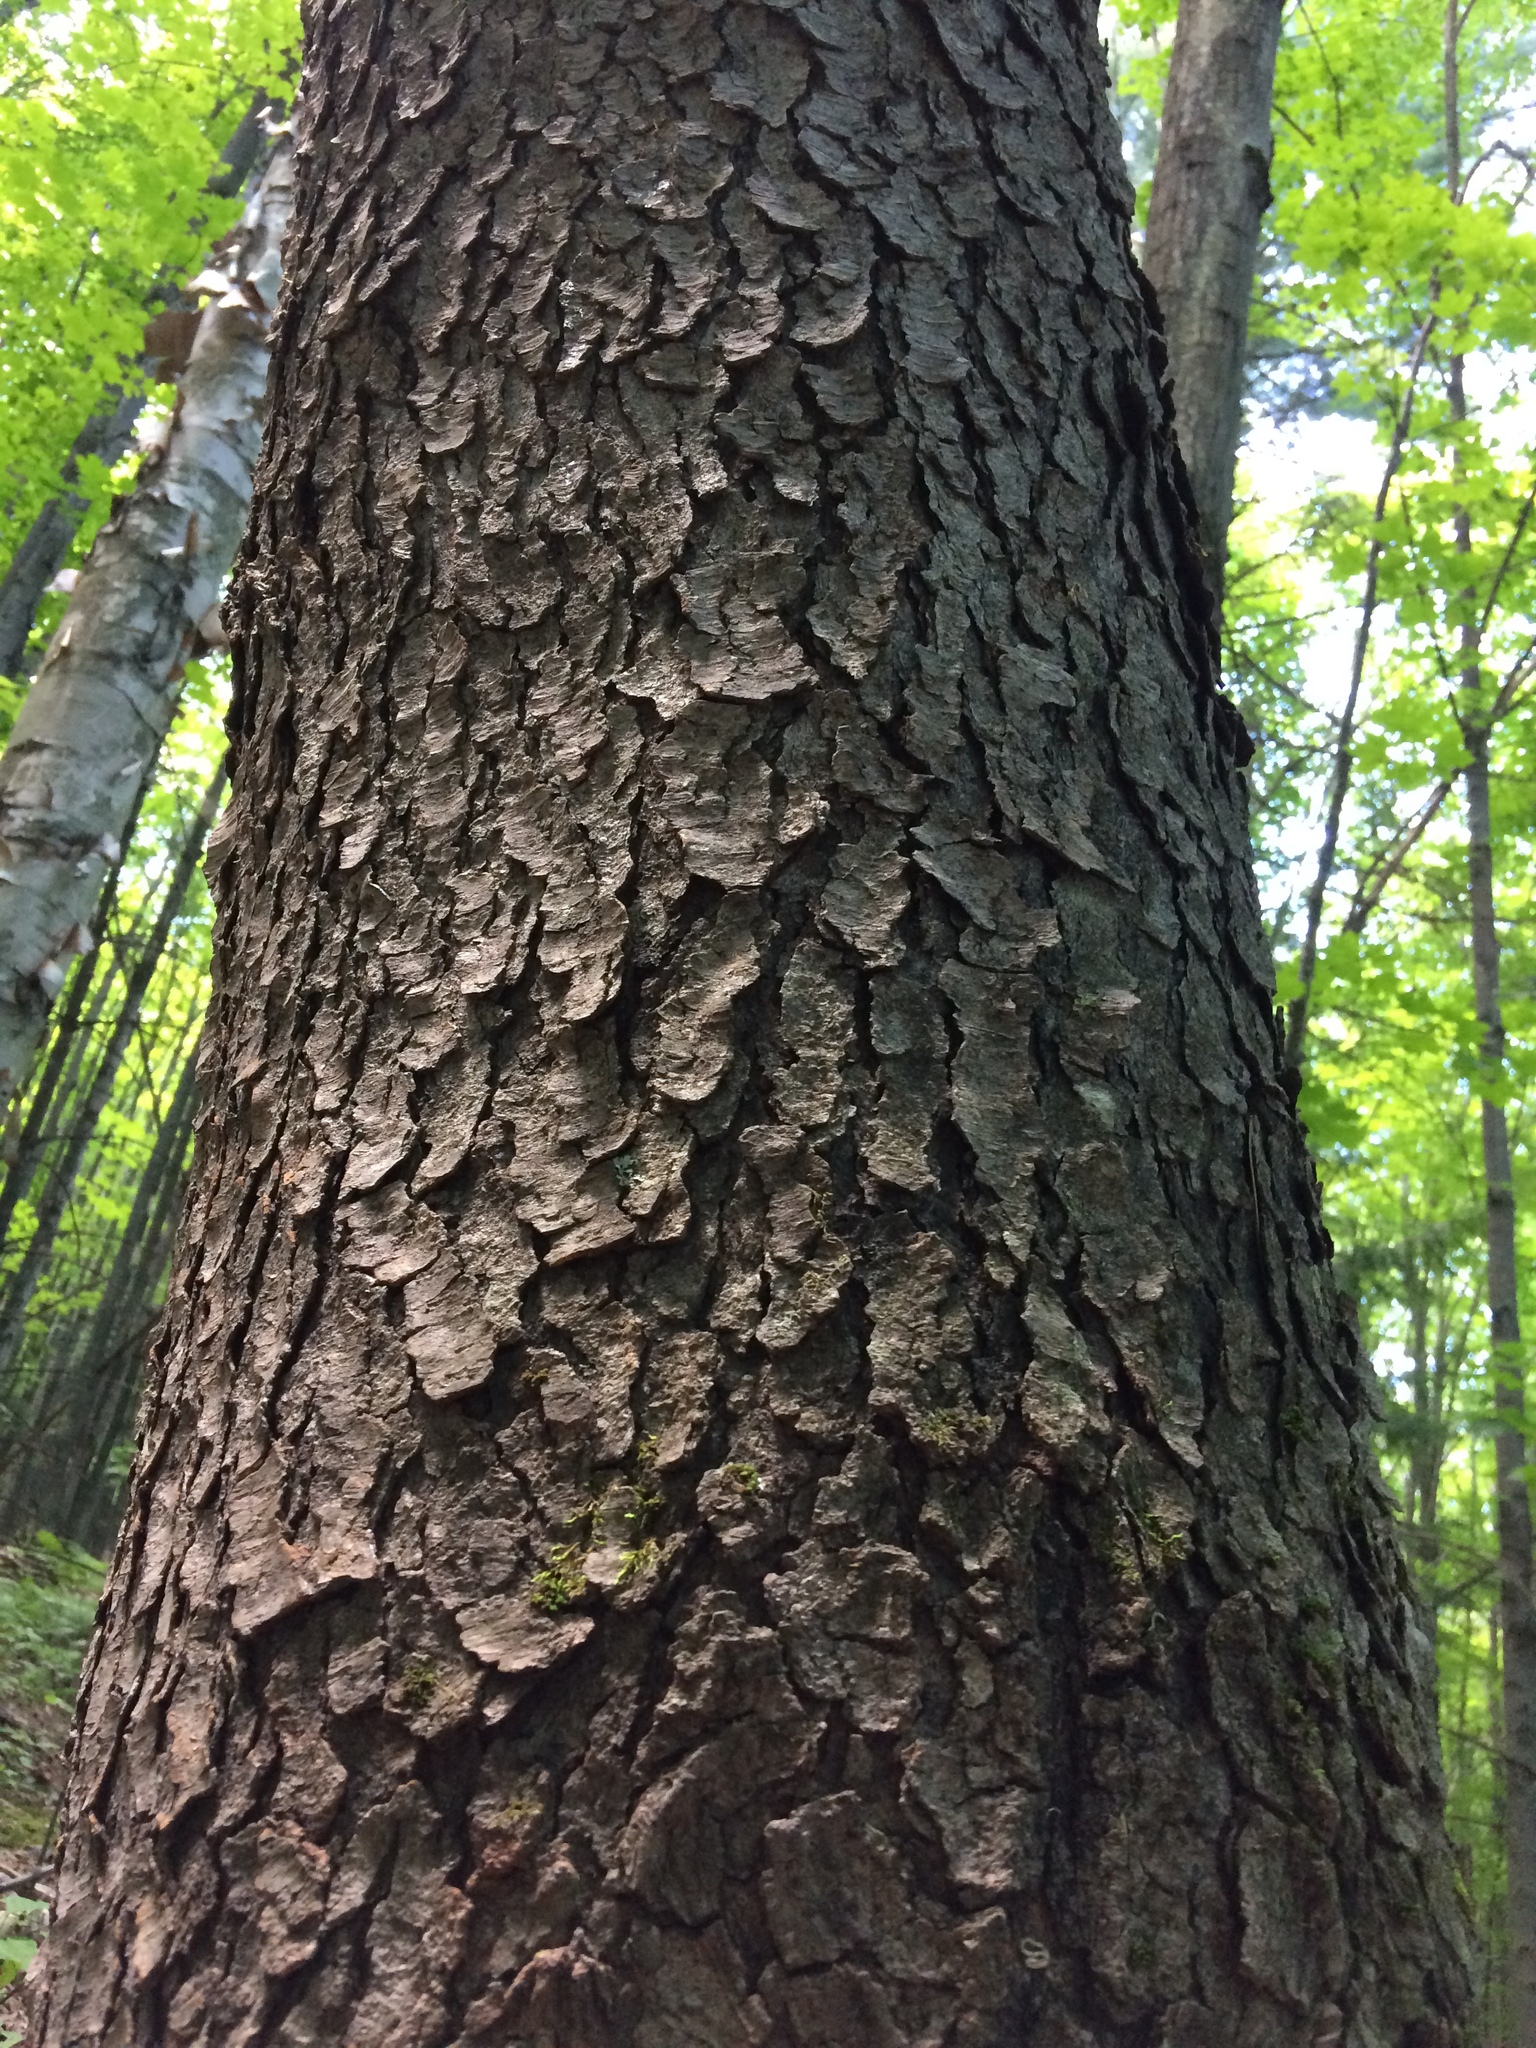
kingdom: Plantae
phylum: Tracheophyta
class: Magnoliopsida
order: Rosales
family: Rosaceae
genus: Prunus
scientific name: Prunus serotina
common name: Black cherry
